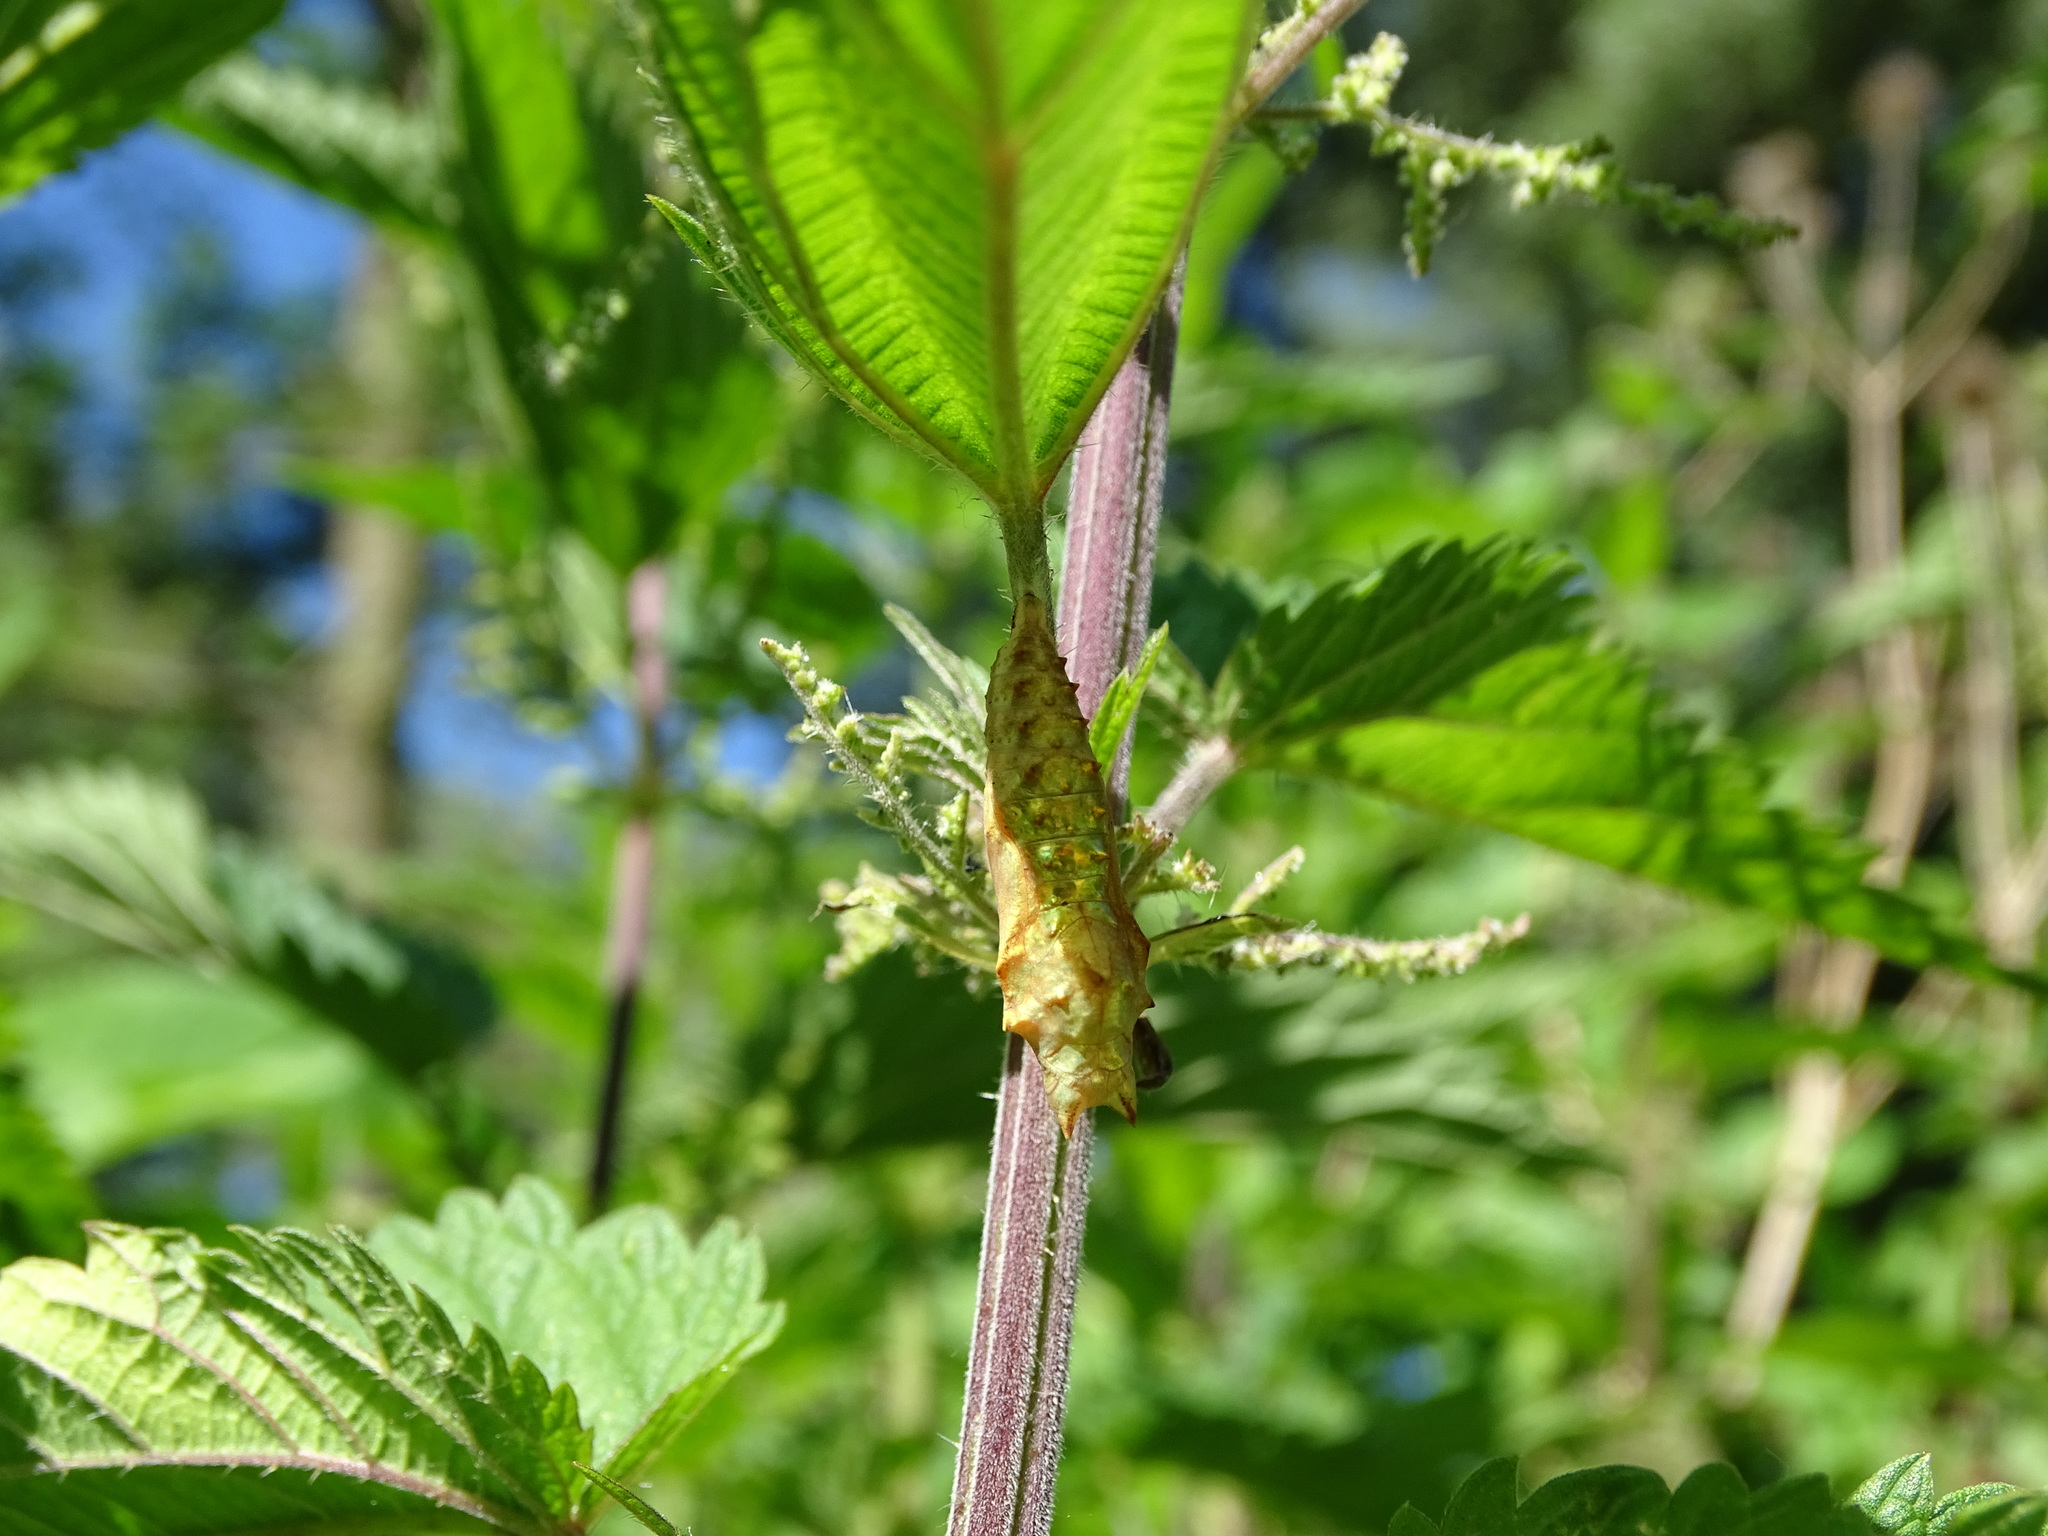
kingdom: Animalia
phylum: Arthropoda
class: Insecta
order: Lepidoptera
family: Nymphalidae
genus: Aglais
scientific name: Aglais urticae
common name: Small tortoiseshell
